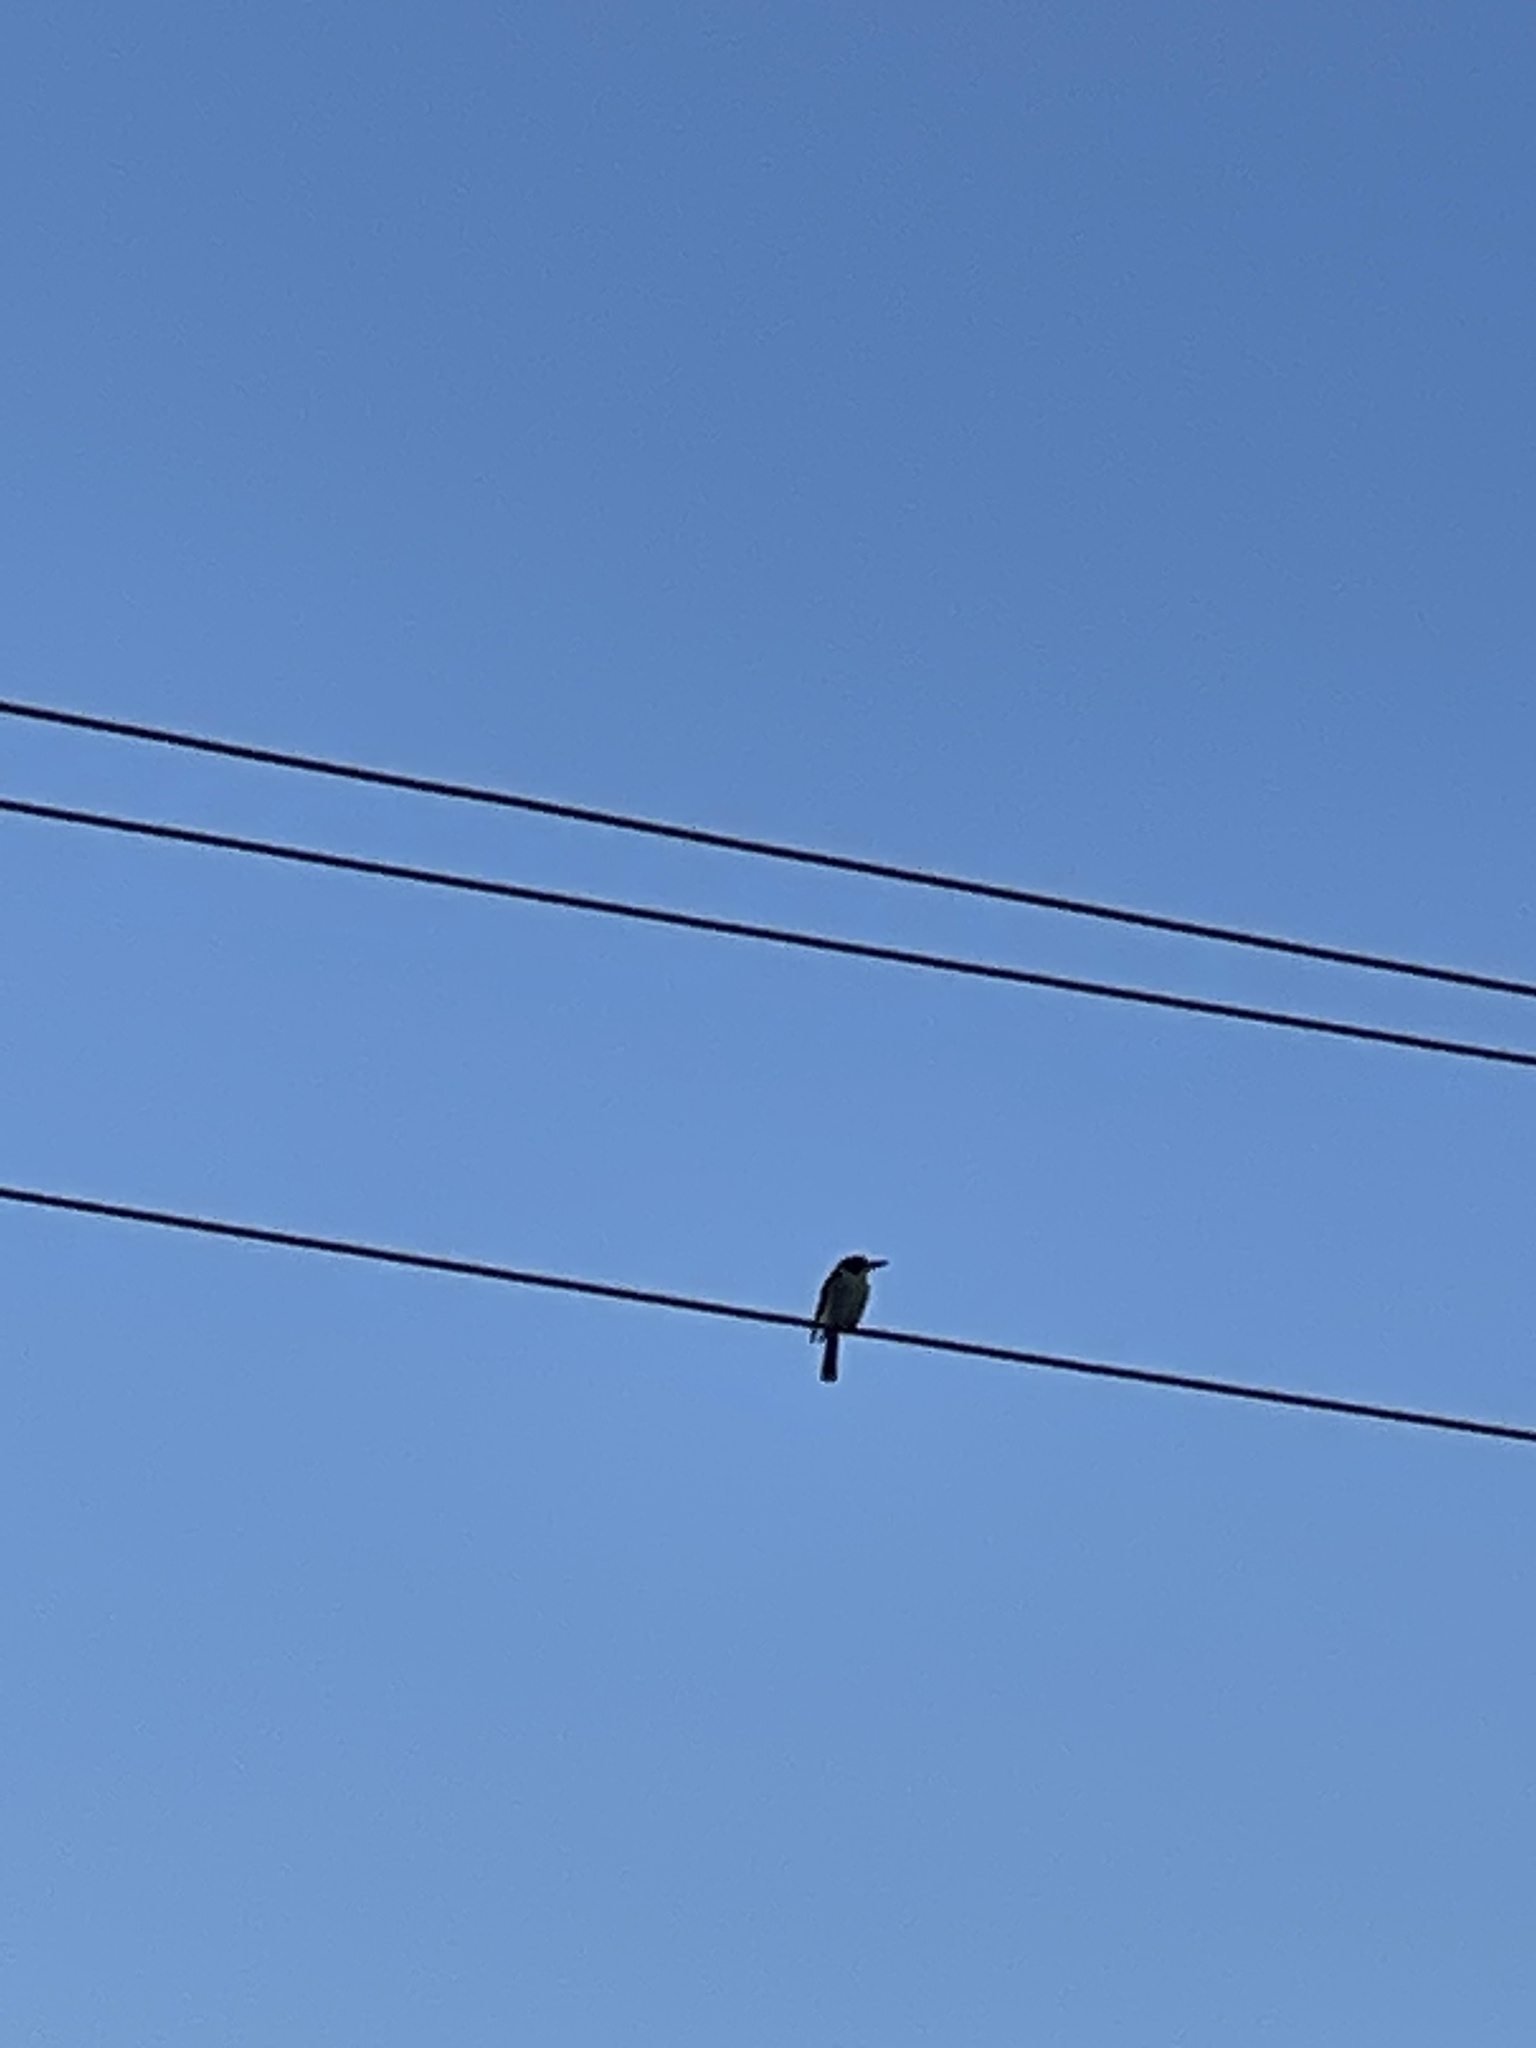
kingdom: Animalia
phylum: Chordata
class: Aves
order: Passeriformes
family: Cracticidae
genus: Cracticus
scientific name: Cracticus torquatus
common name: Grey butcherbird
